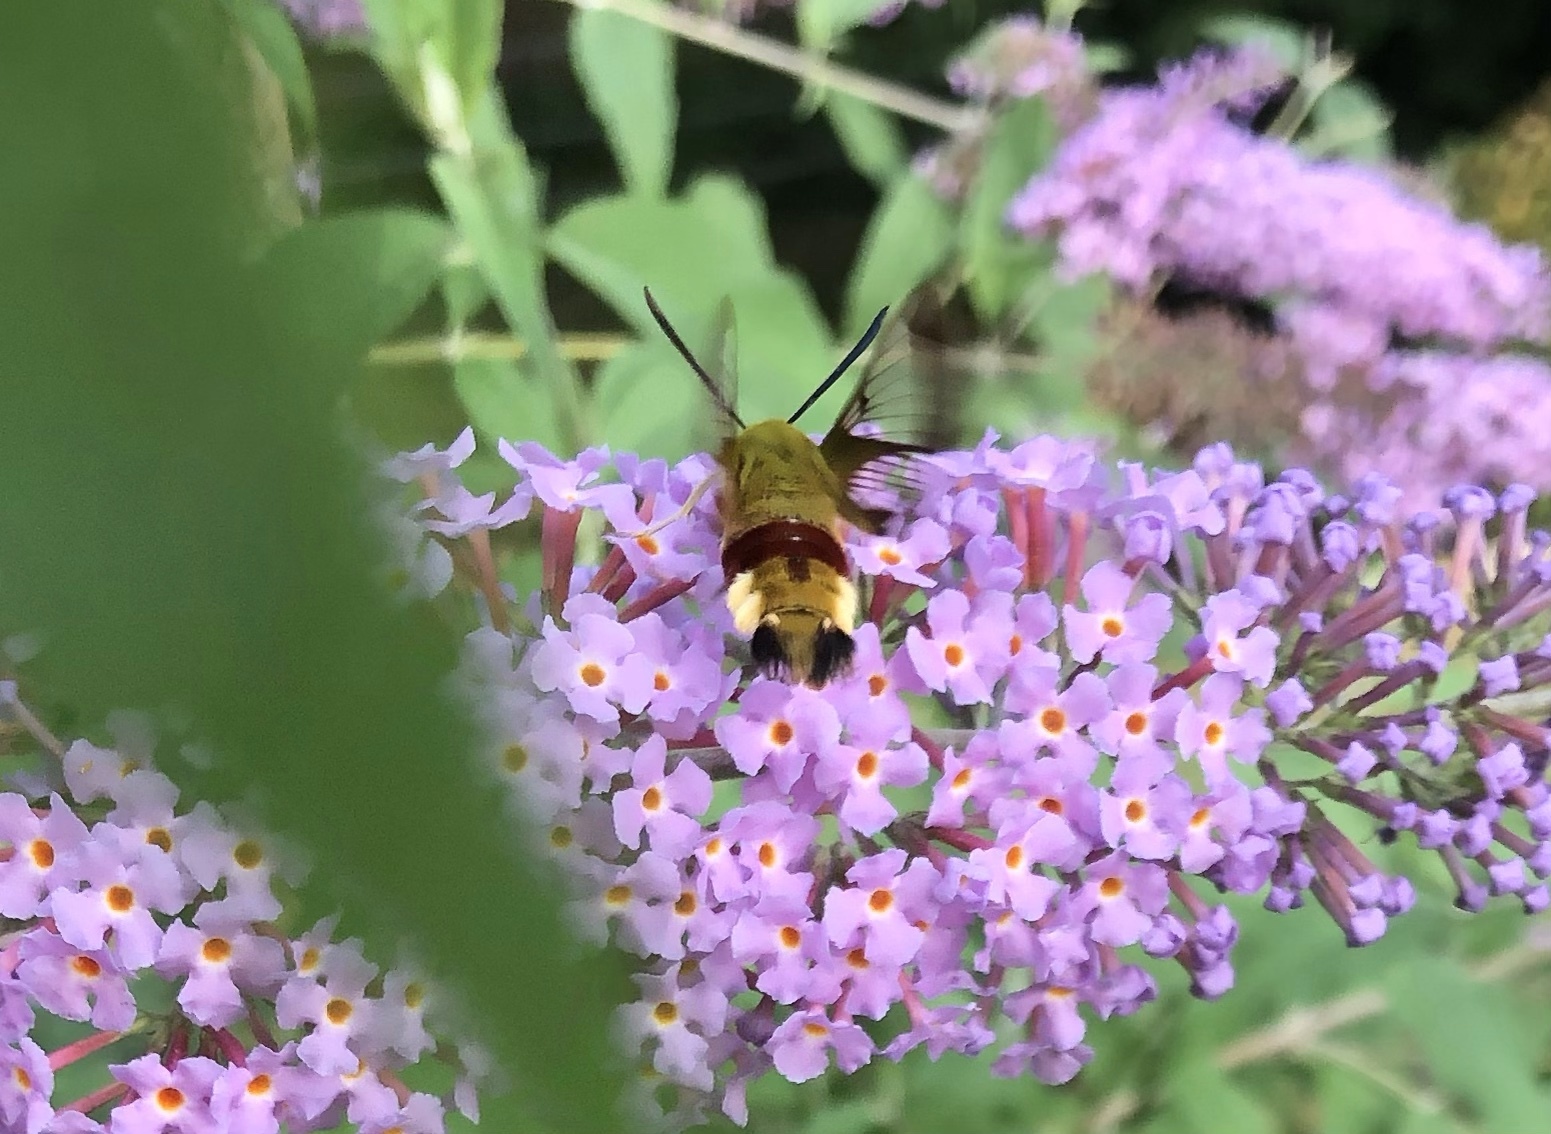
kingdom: Animalia
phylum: Arthropoda
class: Insecta
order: Lepidoptera
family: Sphingidae
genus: Hemaris
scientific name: Hemaris fuciformis
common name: Broad-bordered bee hawk-moth
